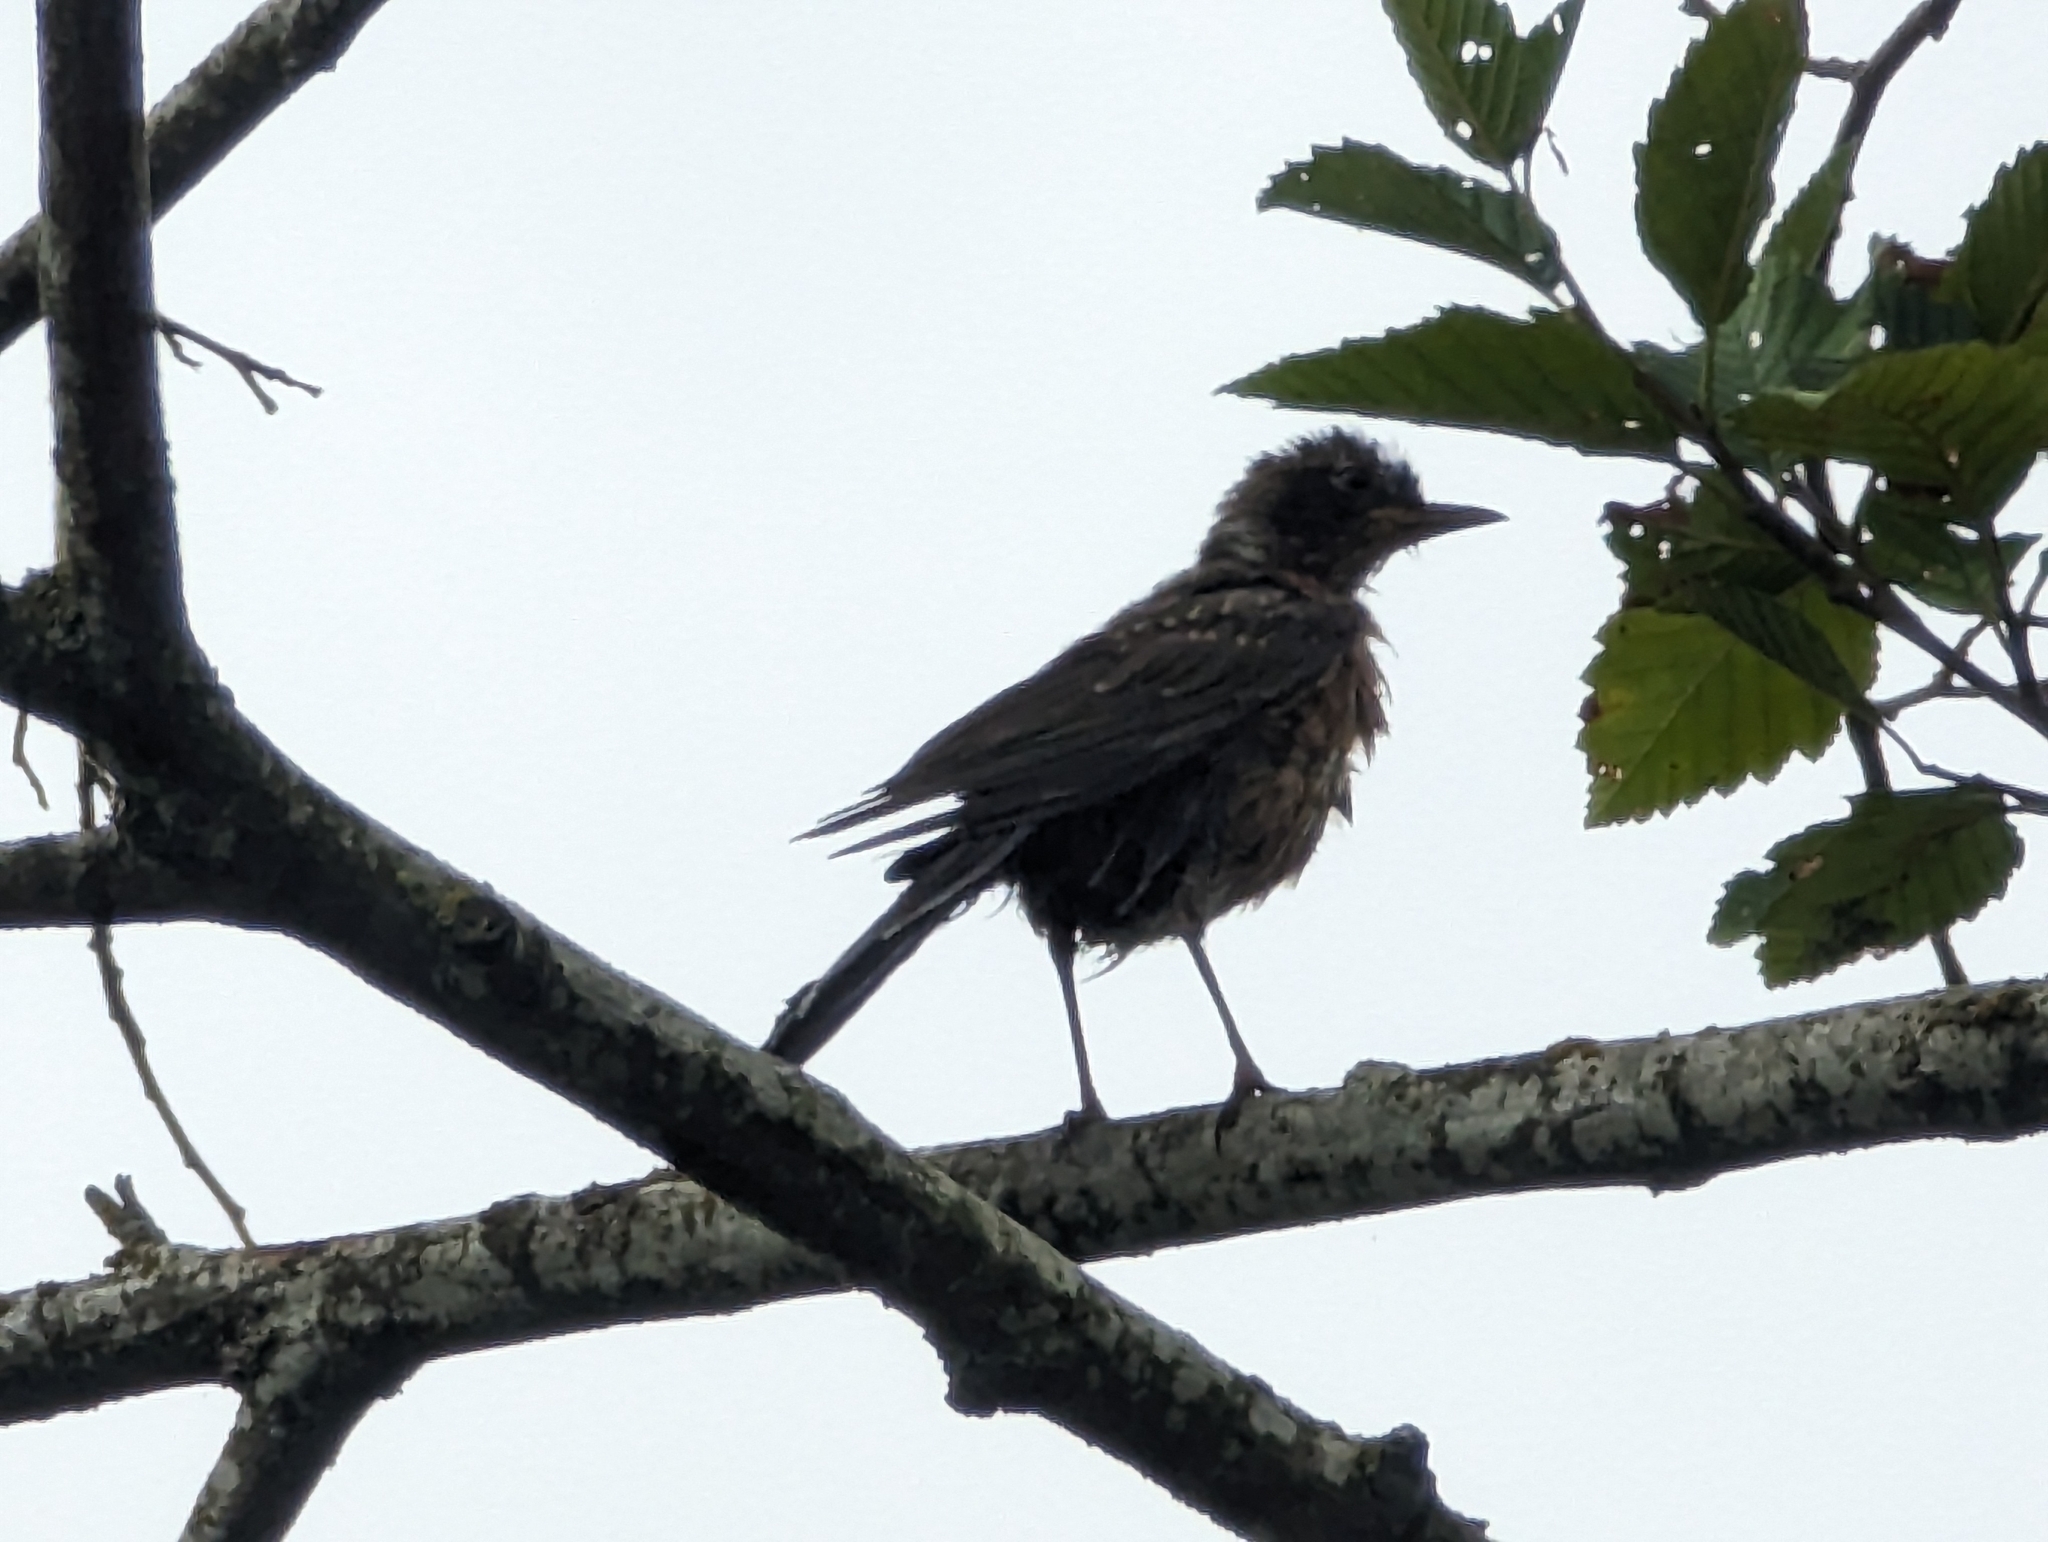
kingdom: Animalia
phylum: Chordata
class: Aves
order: Passeriformes
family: Turdidae
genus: Turdus
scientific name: Turdus migratorius
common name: American robin
